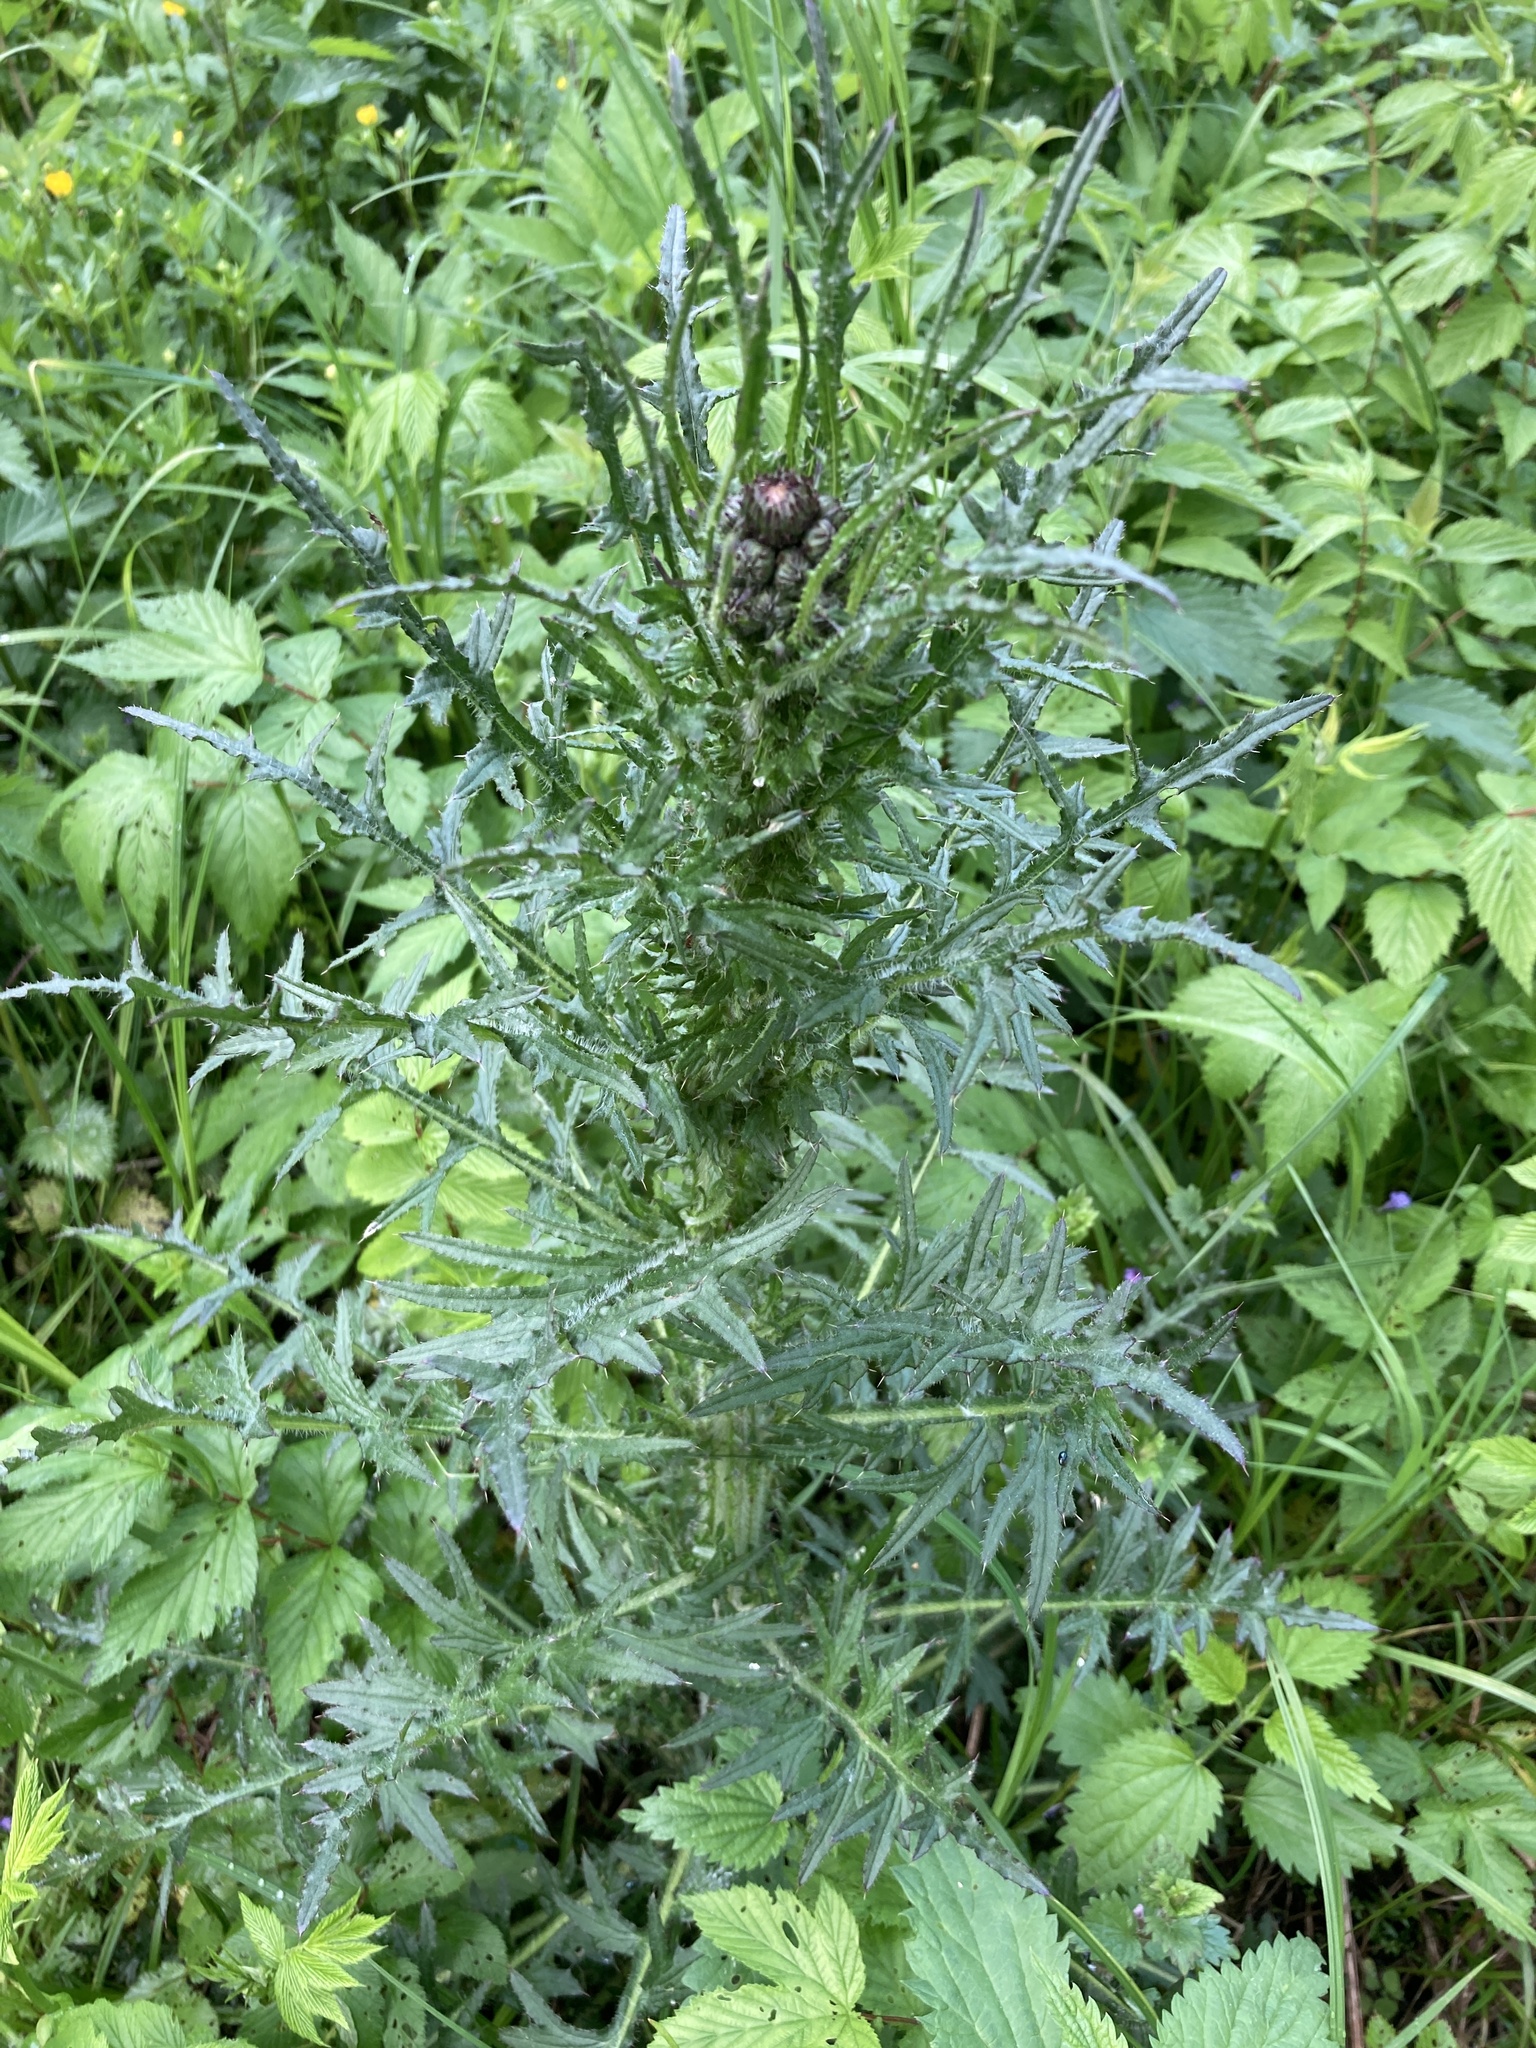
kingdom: Plantae
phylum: Tracheophyta
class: Magnoliopsida
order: Asterales
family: Asteraceae
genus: Cirsium
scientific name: Cirsium palustre
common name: Marsh thistle
